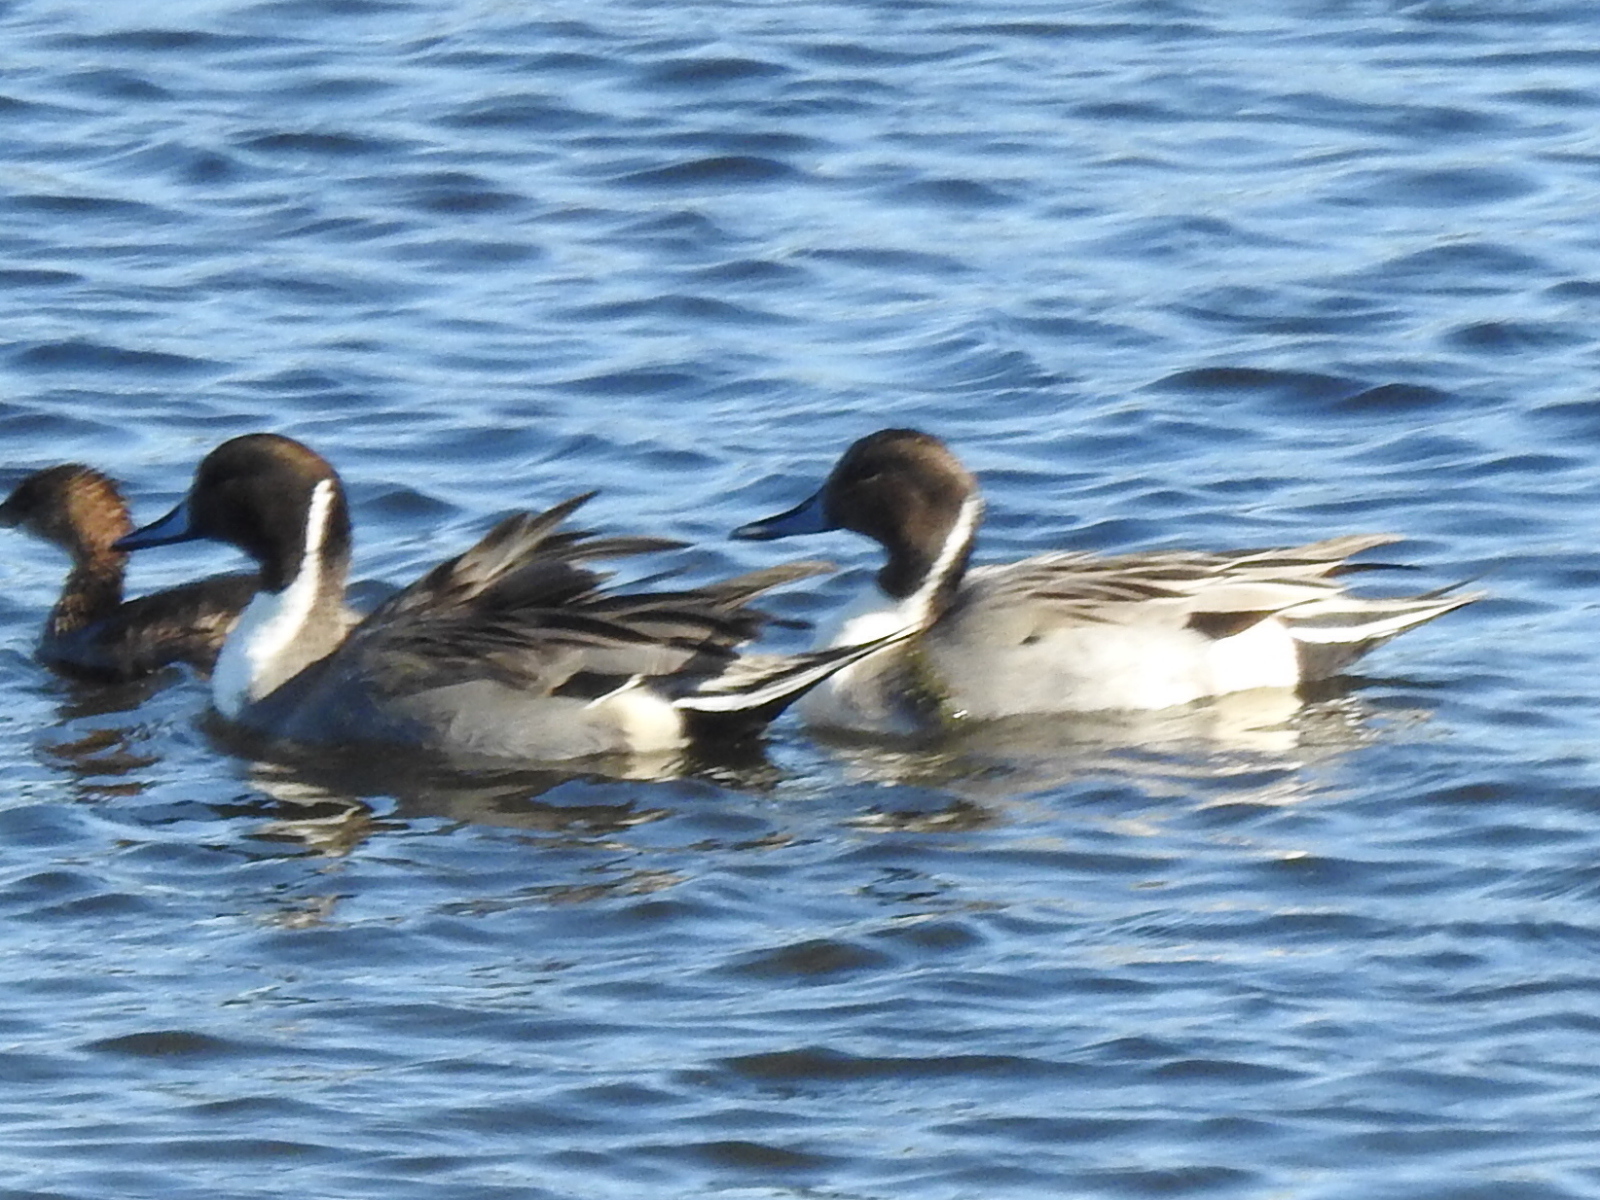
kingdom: Animalia
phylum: Chordata
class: Aves
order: Anseriformes
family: Anatidae
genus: Anas
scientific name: Anas acuta
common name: Northern pintail
